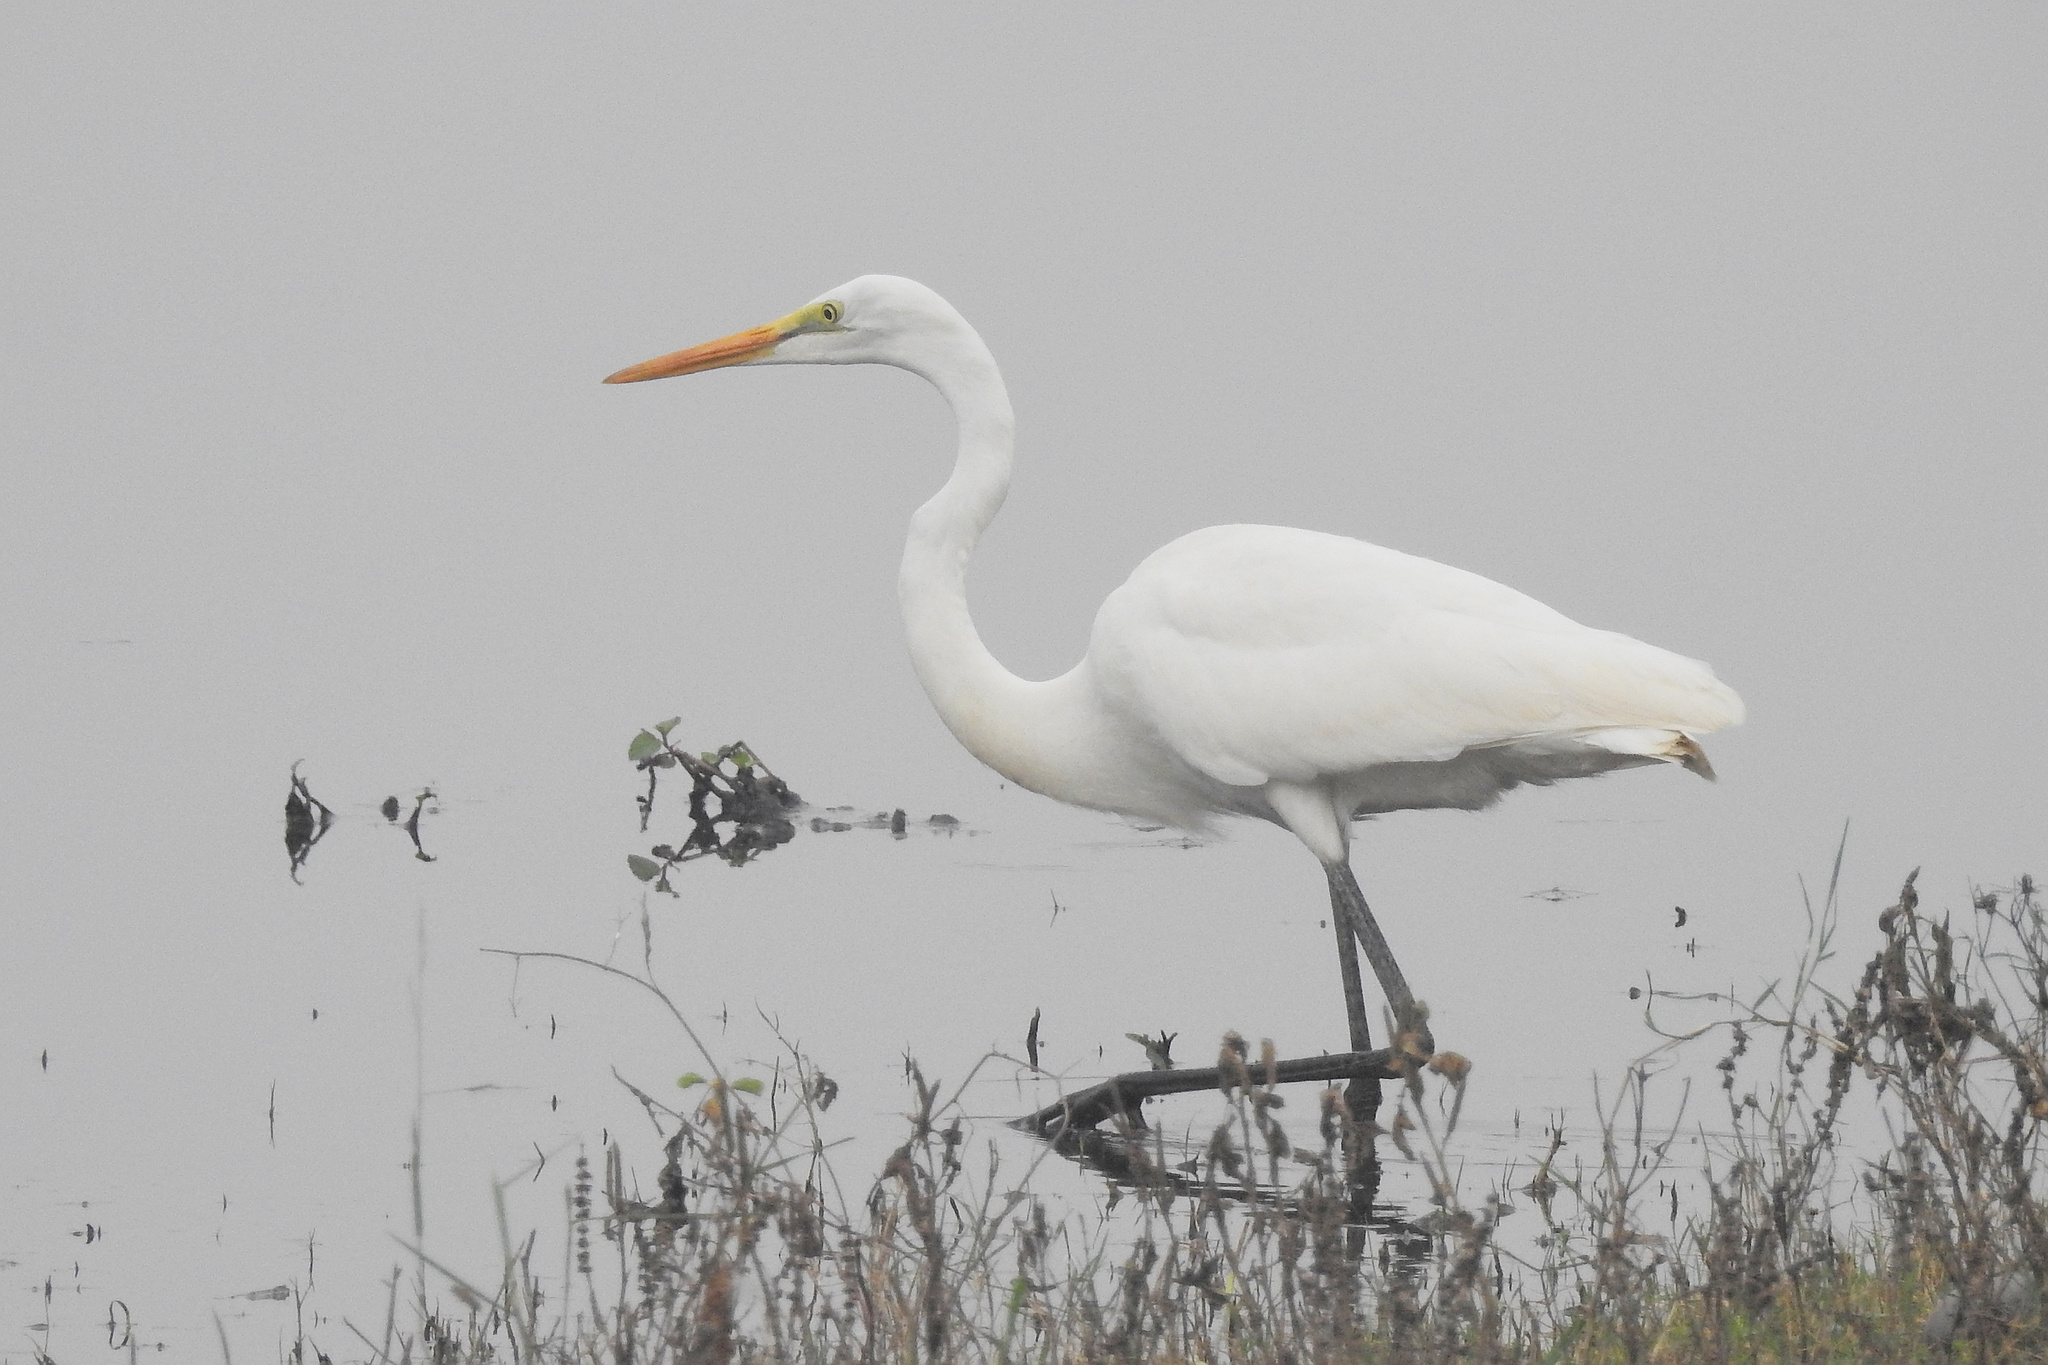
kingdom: Animalia
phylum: Chordata
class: Aves
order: Pelecaniformes
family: Ardeidae
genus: Ardea
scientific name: Ardea alba
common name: Great egret
